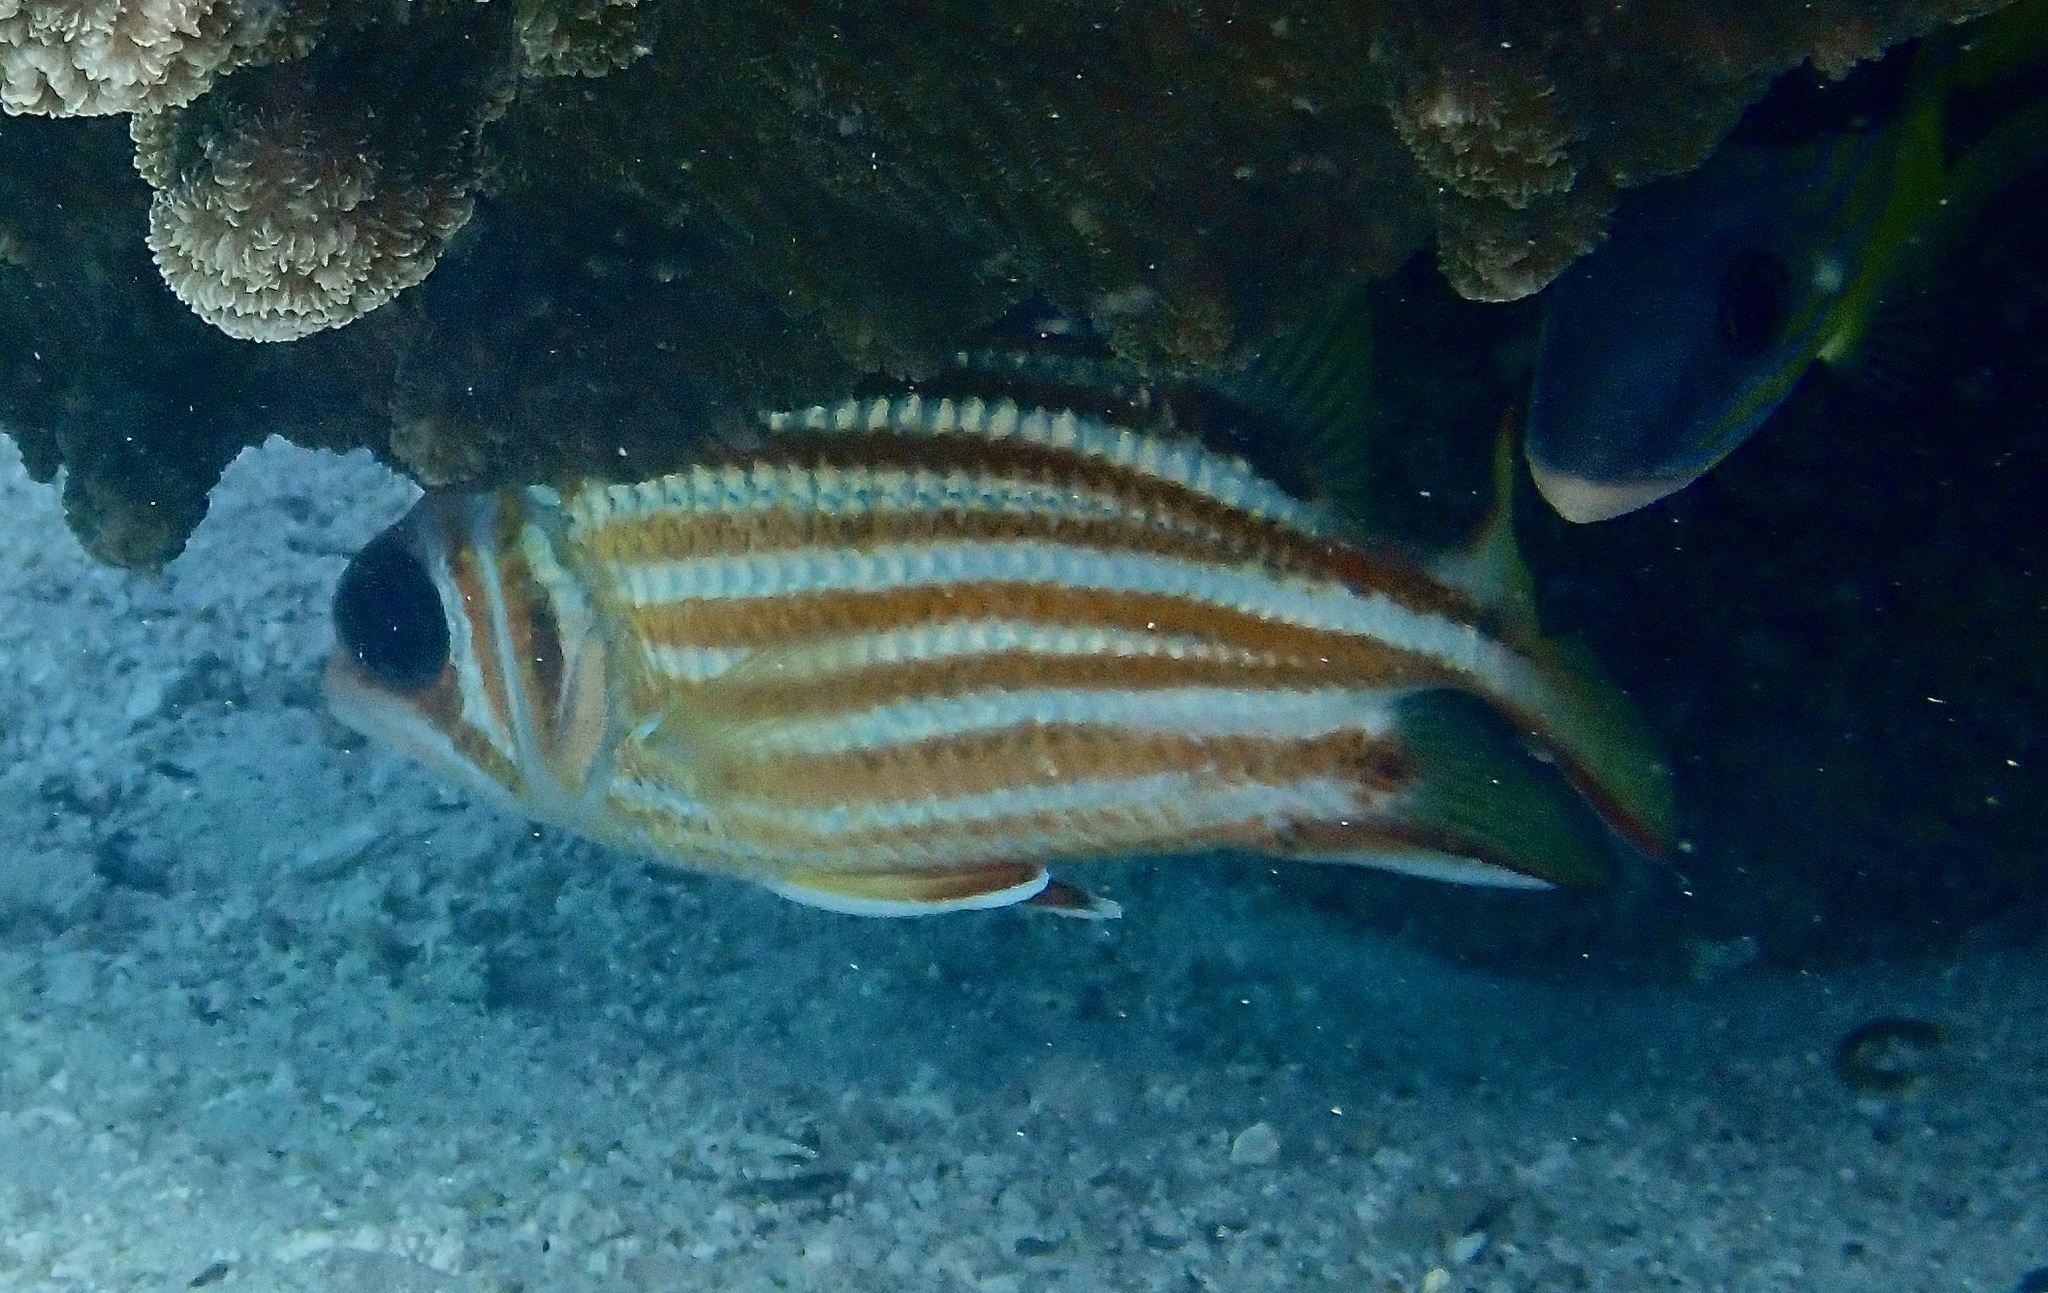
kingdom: Animalia
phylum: Chordata
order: Beryciformes
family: Holocentridae
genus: Sargocentron
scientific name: Sargocentron rubrum
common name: Redcoat
